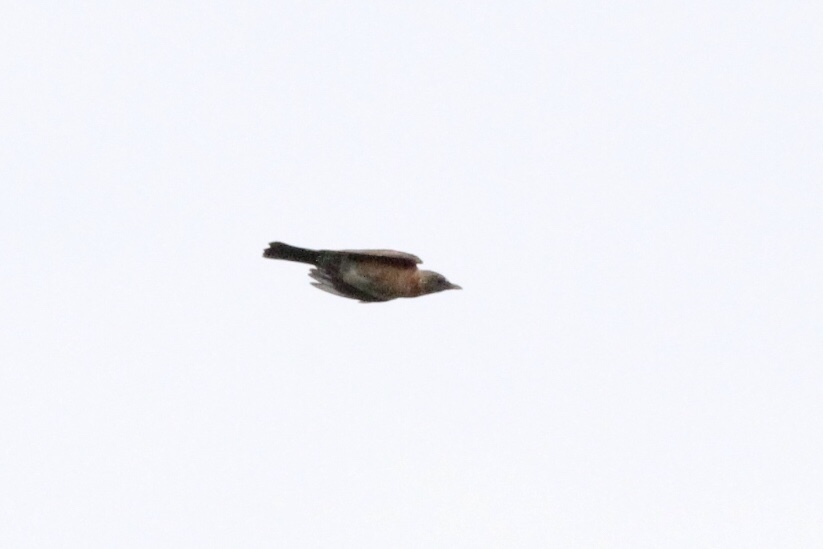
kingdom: Animalia
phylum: Chordata
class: Aves
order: Passeriformes
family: Turdidae
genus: Turdus
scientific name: Turdus migratorius
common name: American robin
